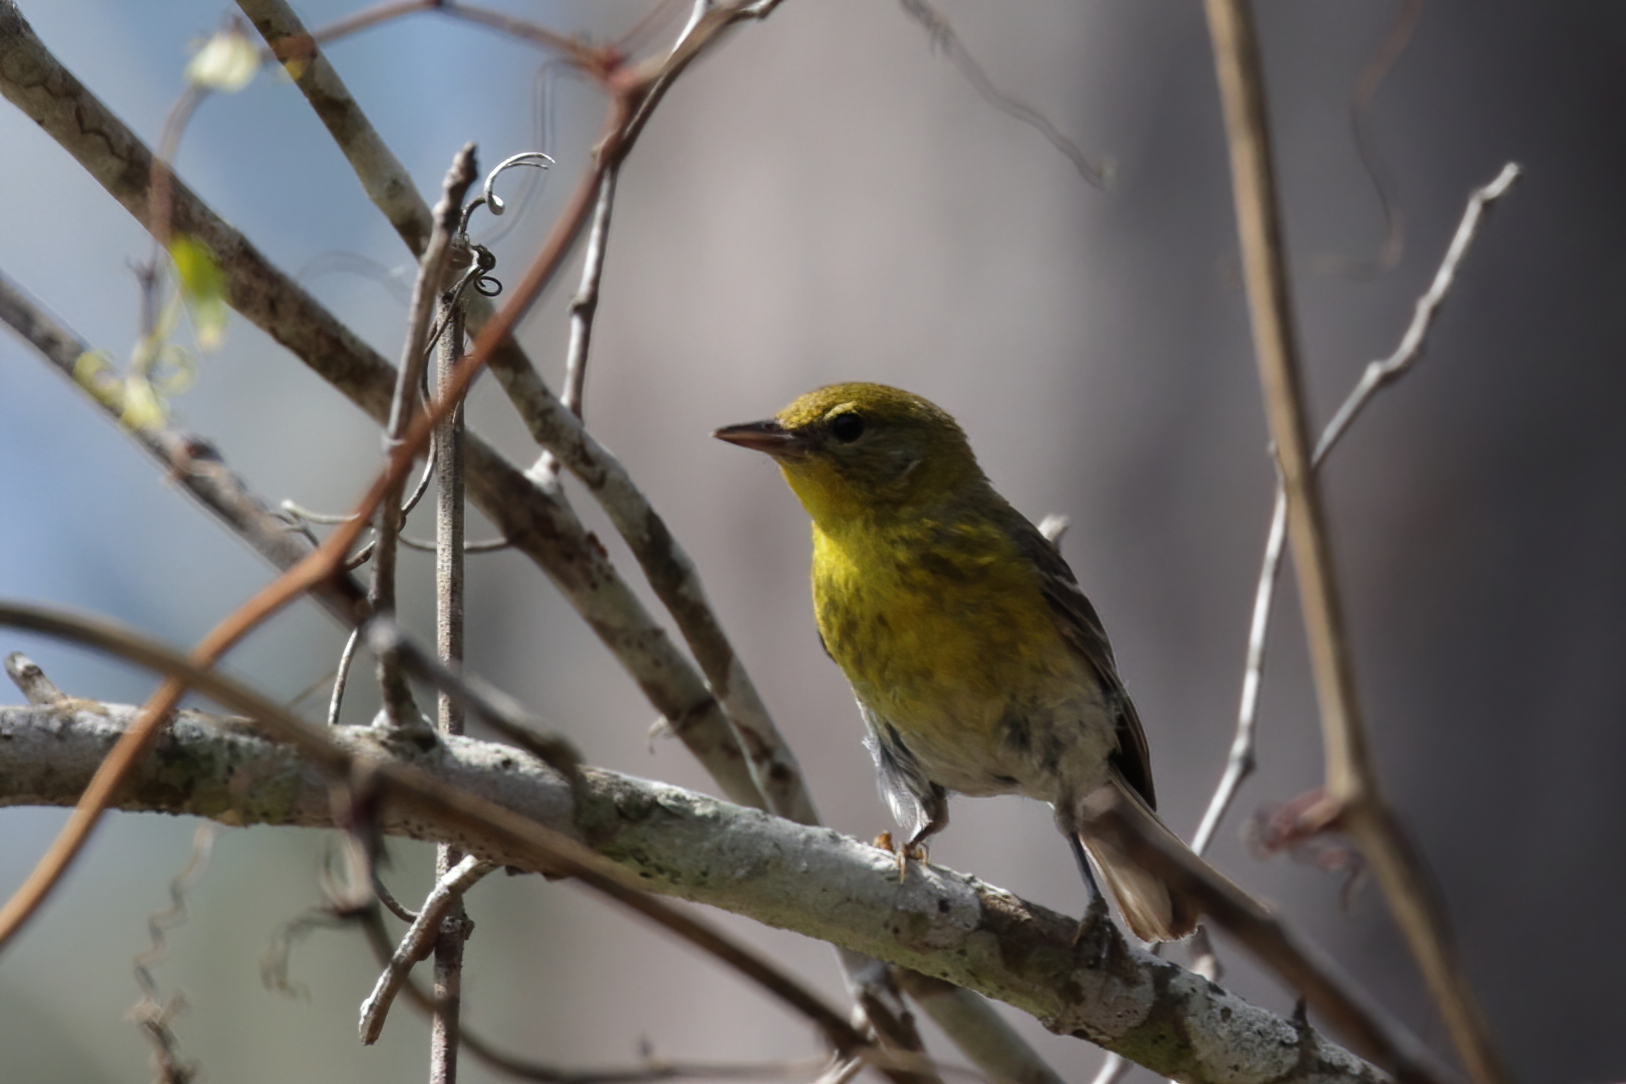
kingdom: Animalia
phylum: Chordata
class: Aves
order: Passeriformes
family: Parulidae
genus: Setophaga
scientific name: Setophaga pinus
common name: Pine warbler
